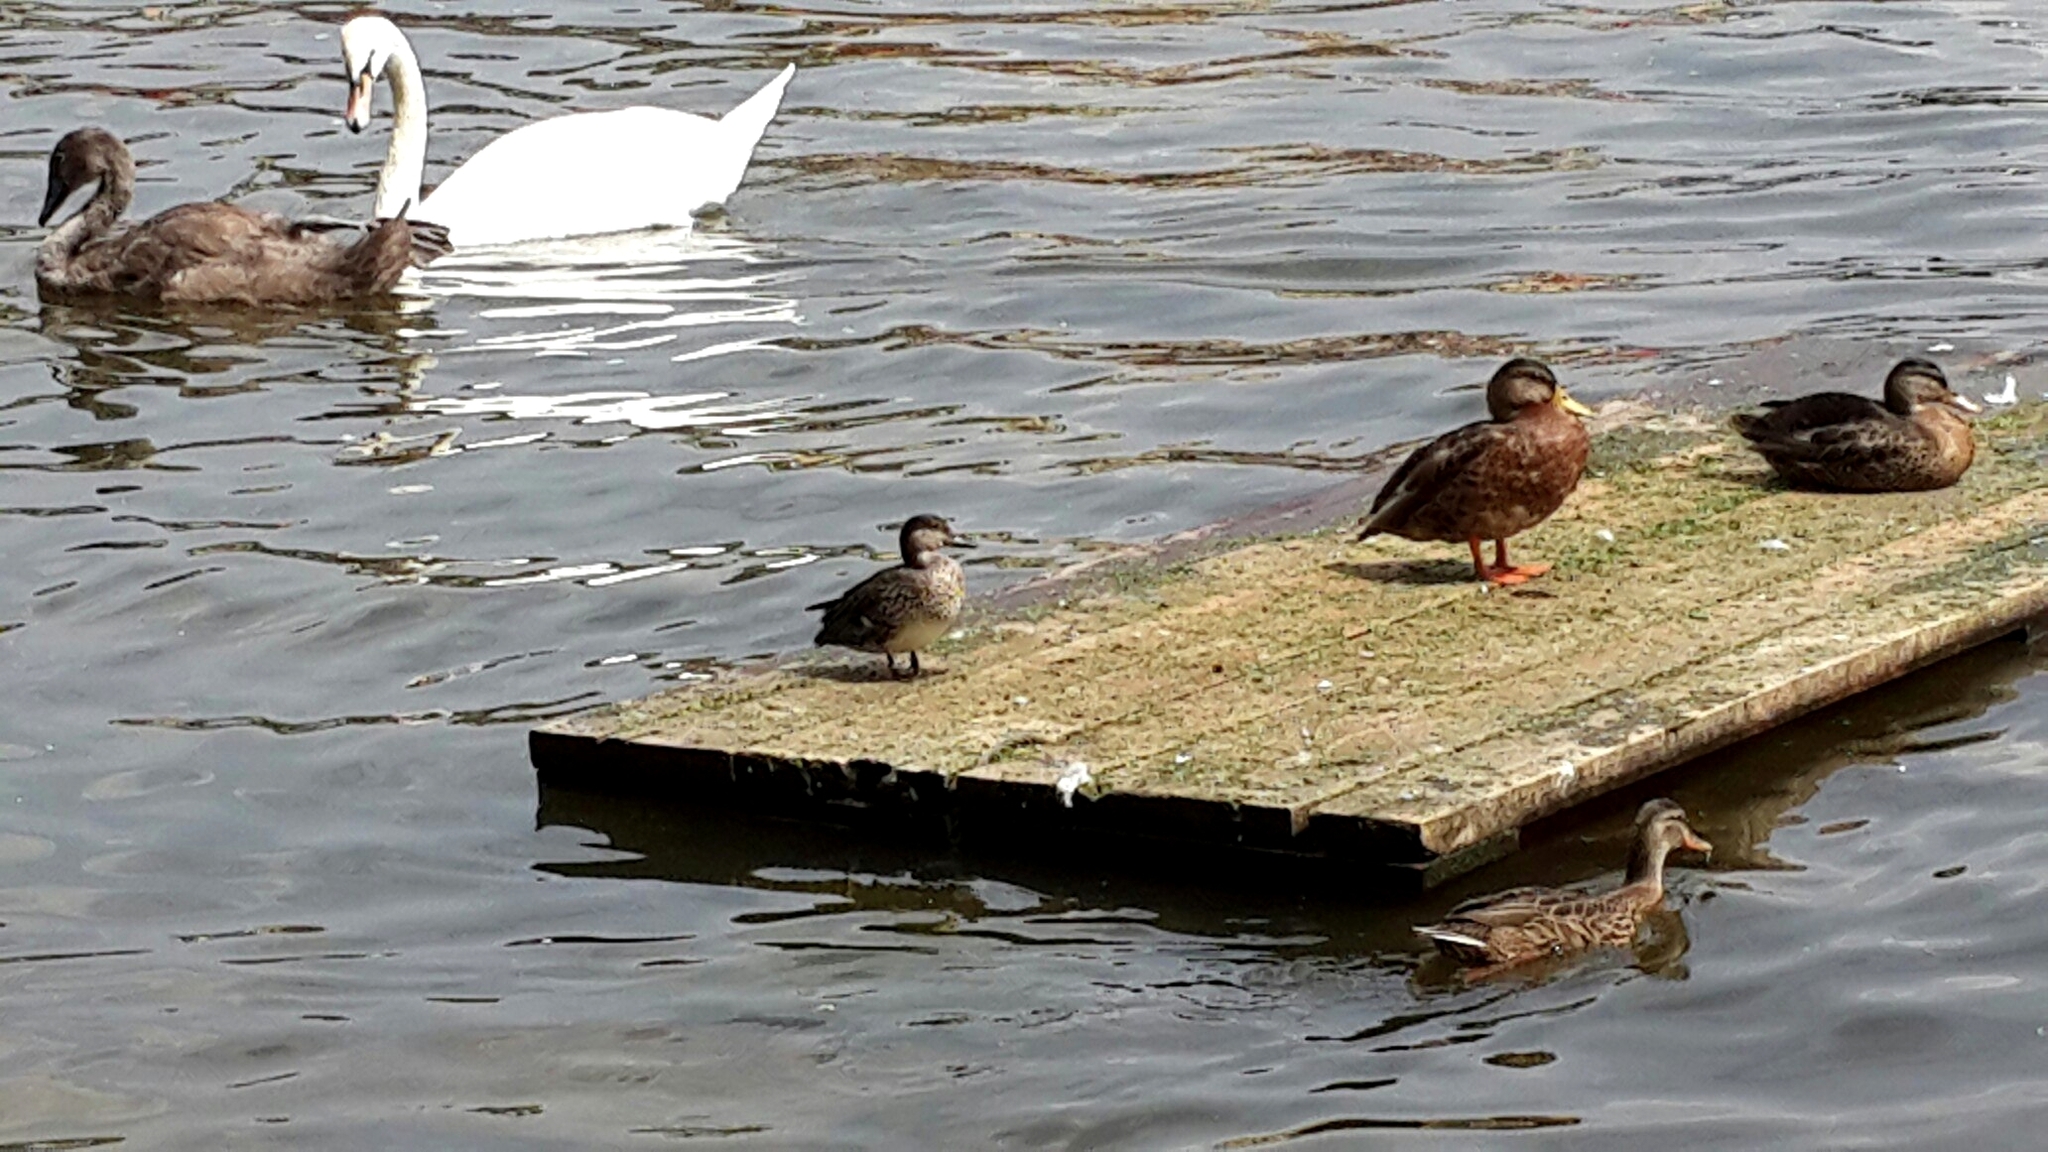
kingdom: Animalia
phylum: Chordata
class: Aves
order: Anseriformes
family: Anatidae
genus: Anas
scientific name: Anas crecca
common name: Eurasian teal
